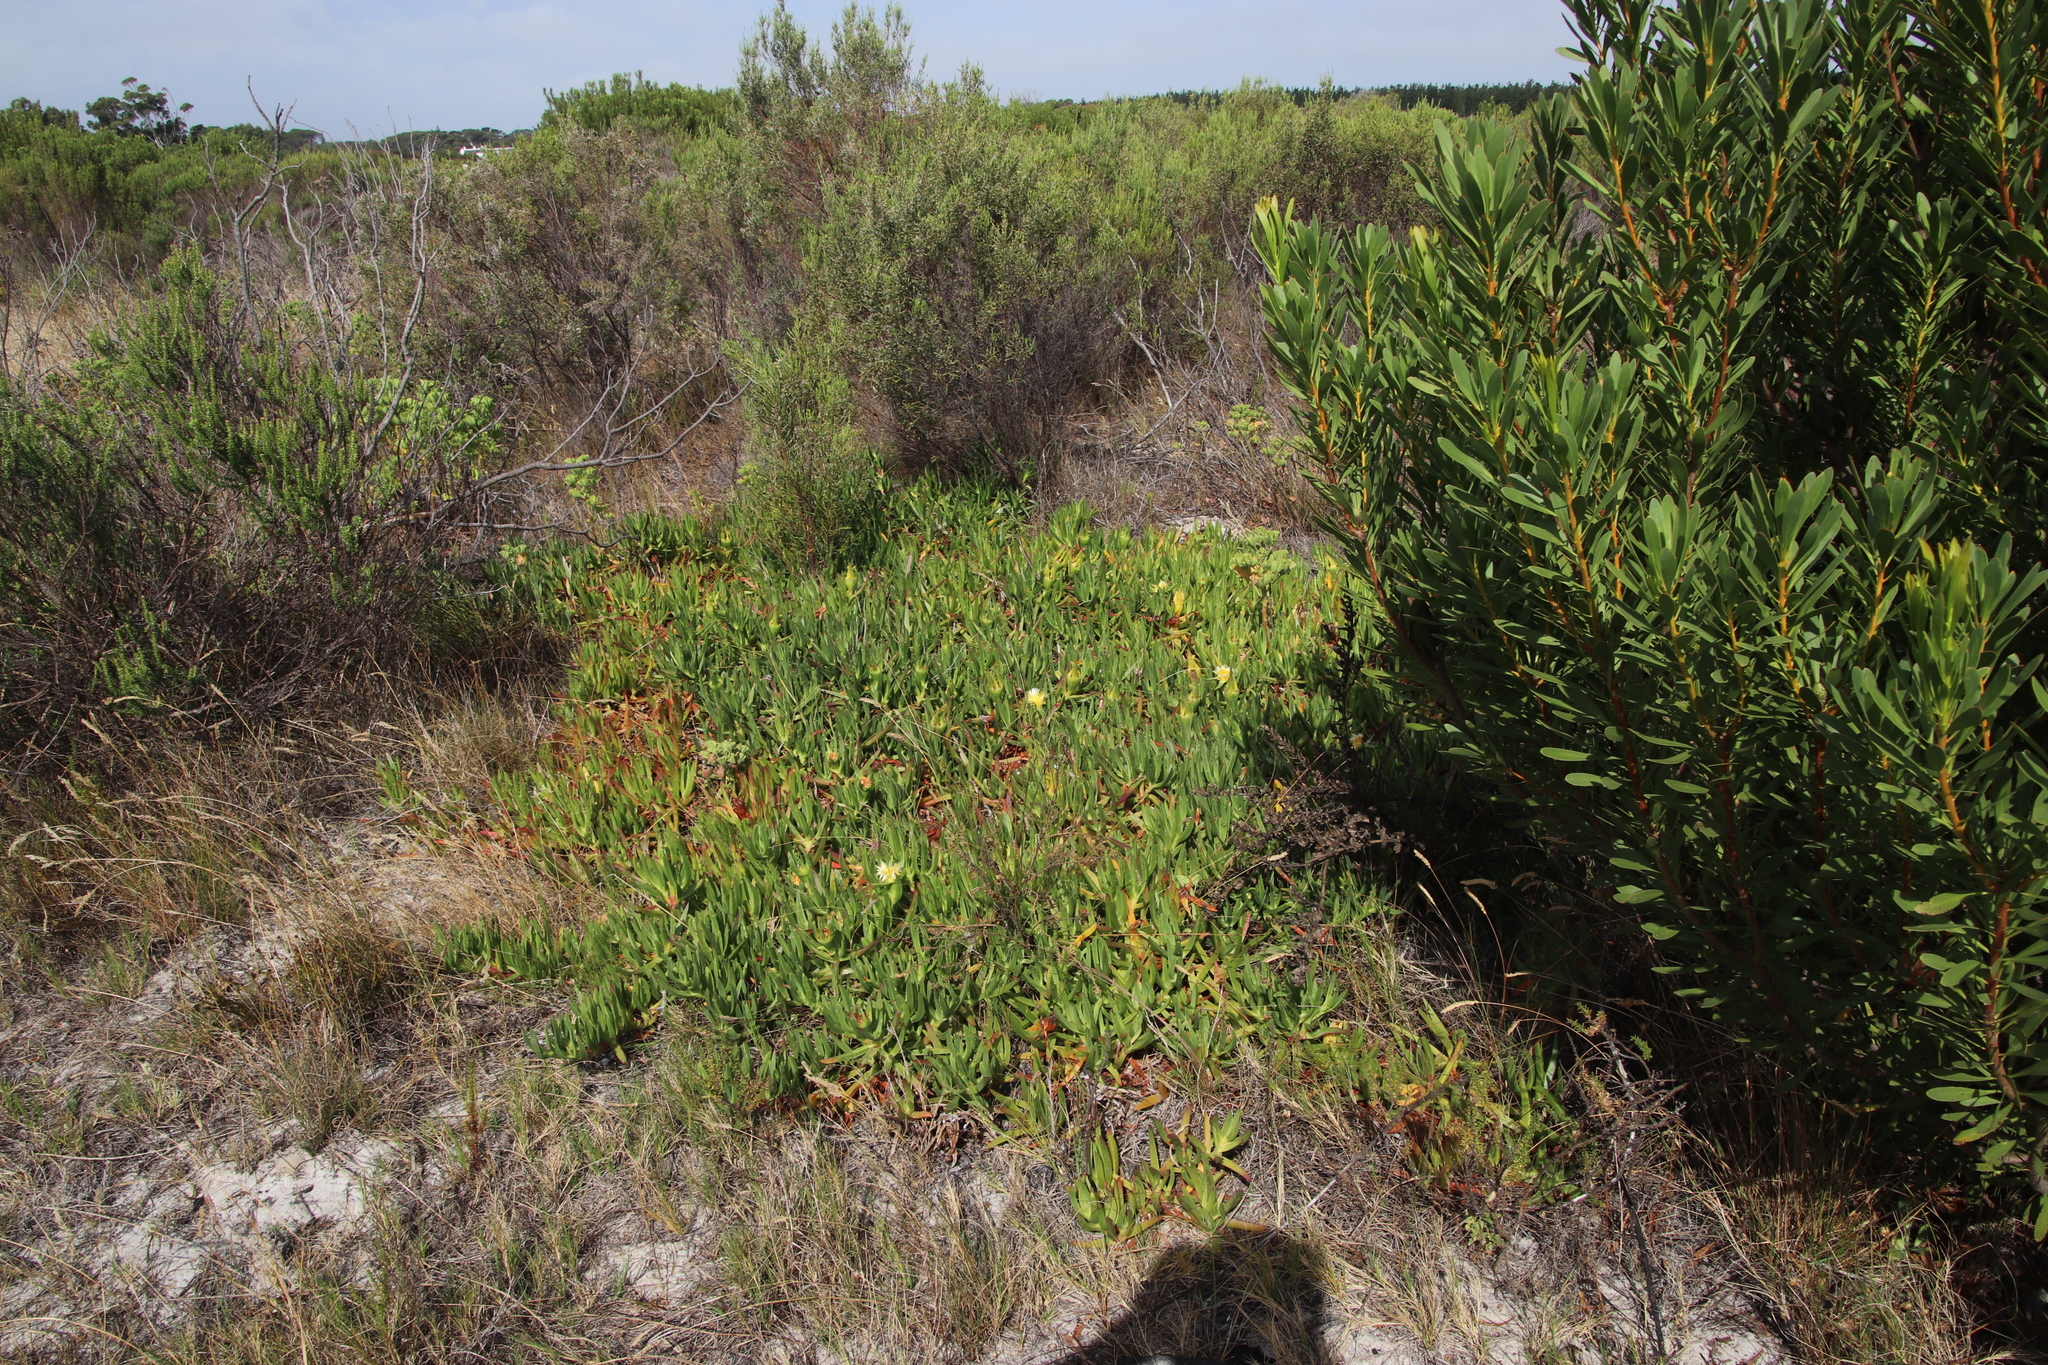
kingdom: Plantae
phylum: Tracheophyta
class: Magnoliopsida
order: Caryophyllales
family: Aizoaceae
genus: Carpobrotus
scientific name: Carpobrotus edulis
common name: Hottentot-fig
